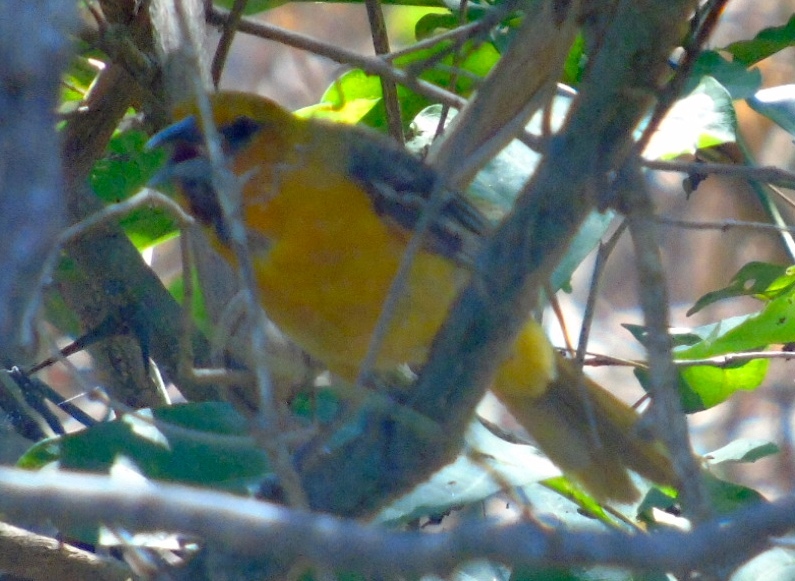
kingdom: Animalia
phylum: Chordata
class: Aves
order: Passeriformes
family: Icteridae
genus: Icterus
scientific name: Icterus pustulatus
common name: Streak-backed oriole
